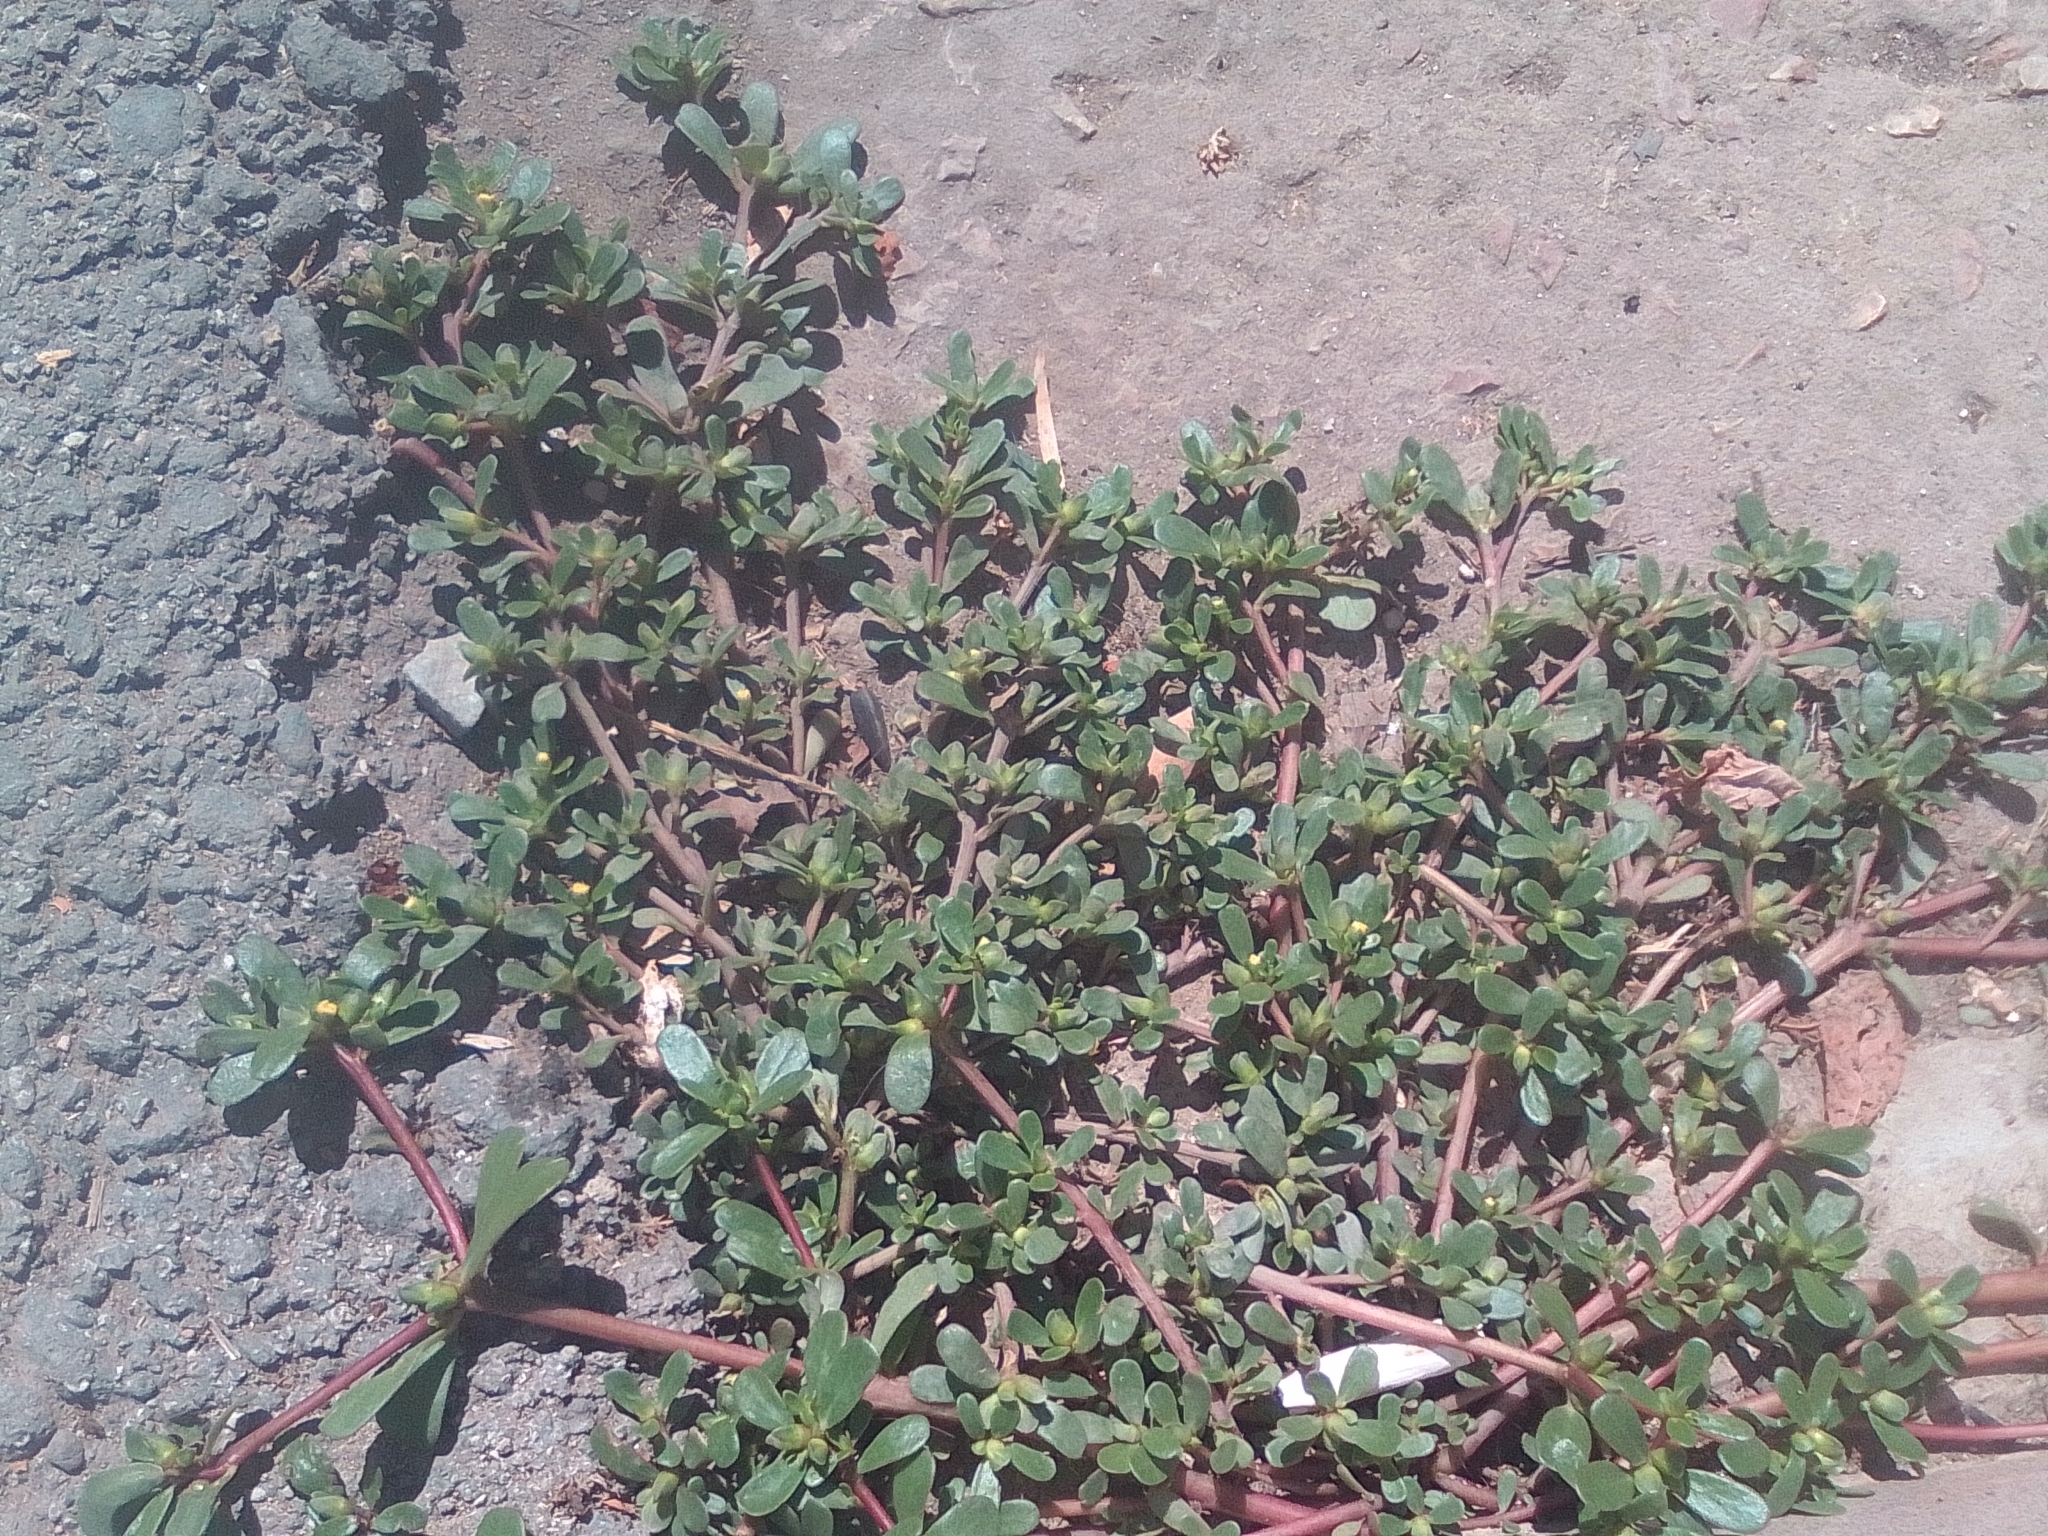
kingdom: Plantae
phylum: Tracheophyta
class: Magnoliopsida
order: Caryophyllales
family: Portulacaceae
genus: Portulaca
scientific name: Portulaca oleracea
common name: Common purslane
